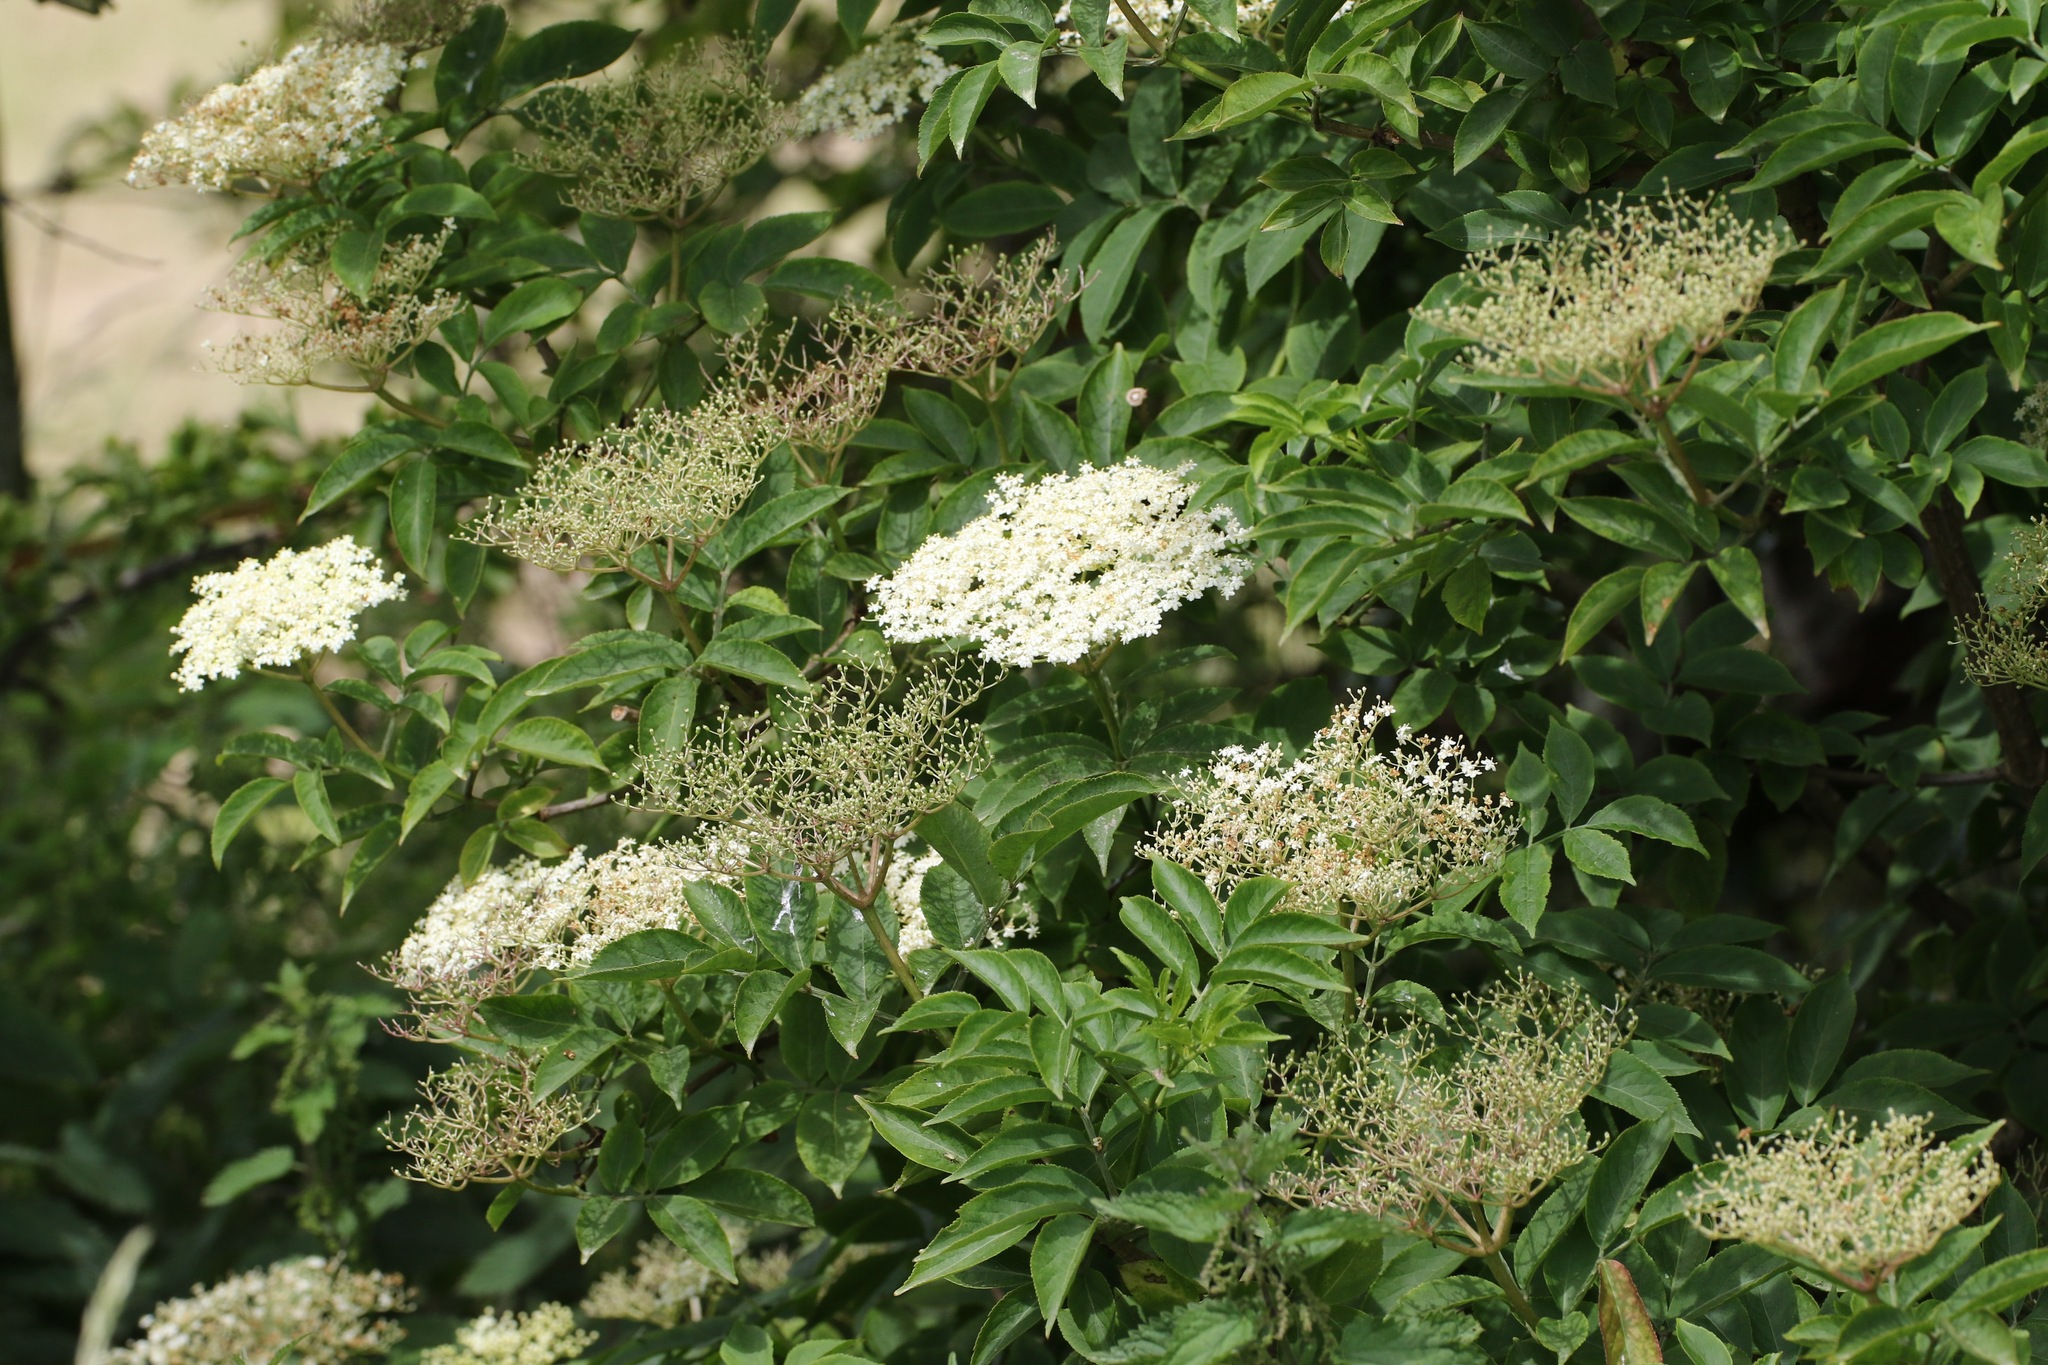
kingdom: Plantae
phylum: Tracheophyta
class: Magnoliopsida
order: Dipsacales
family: Viburnaceae
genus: Sambucus
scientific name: Sambucus nigra
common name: Elder
